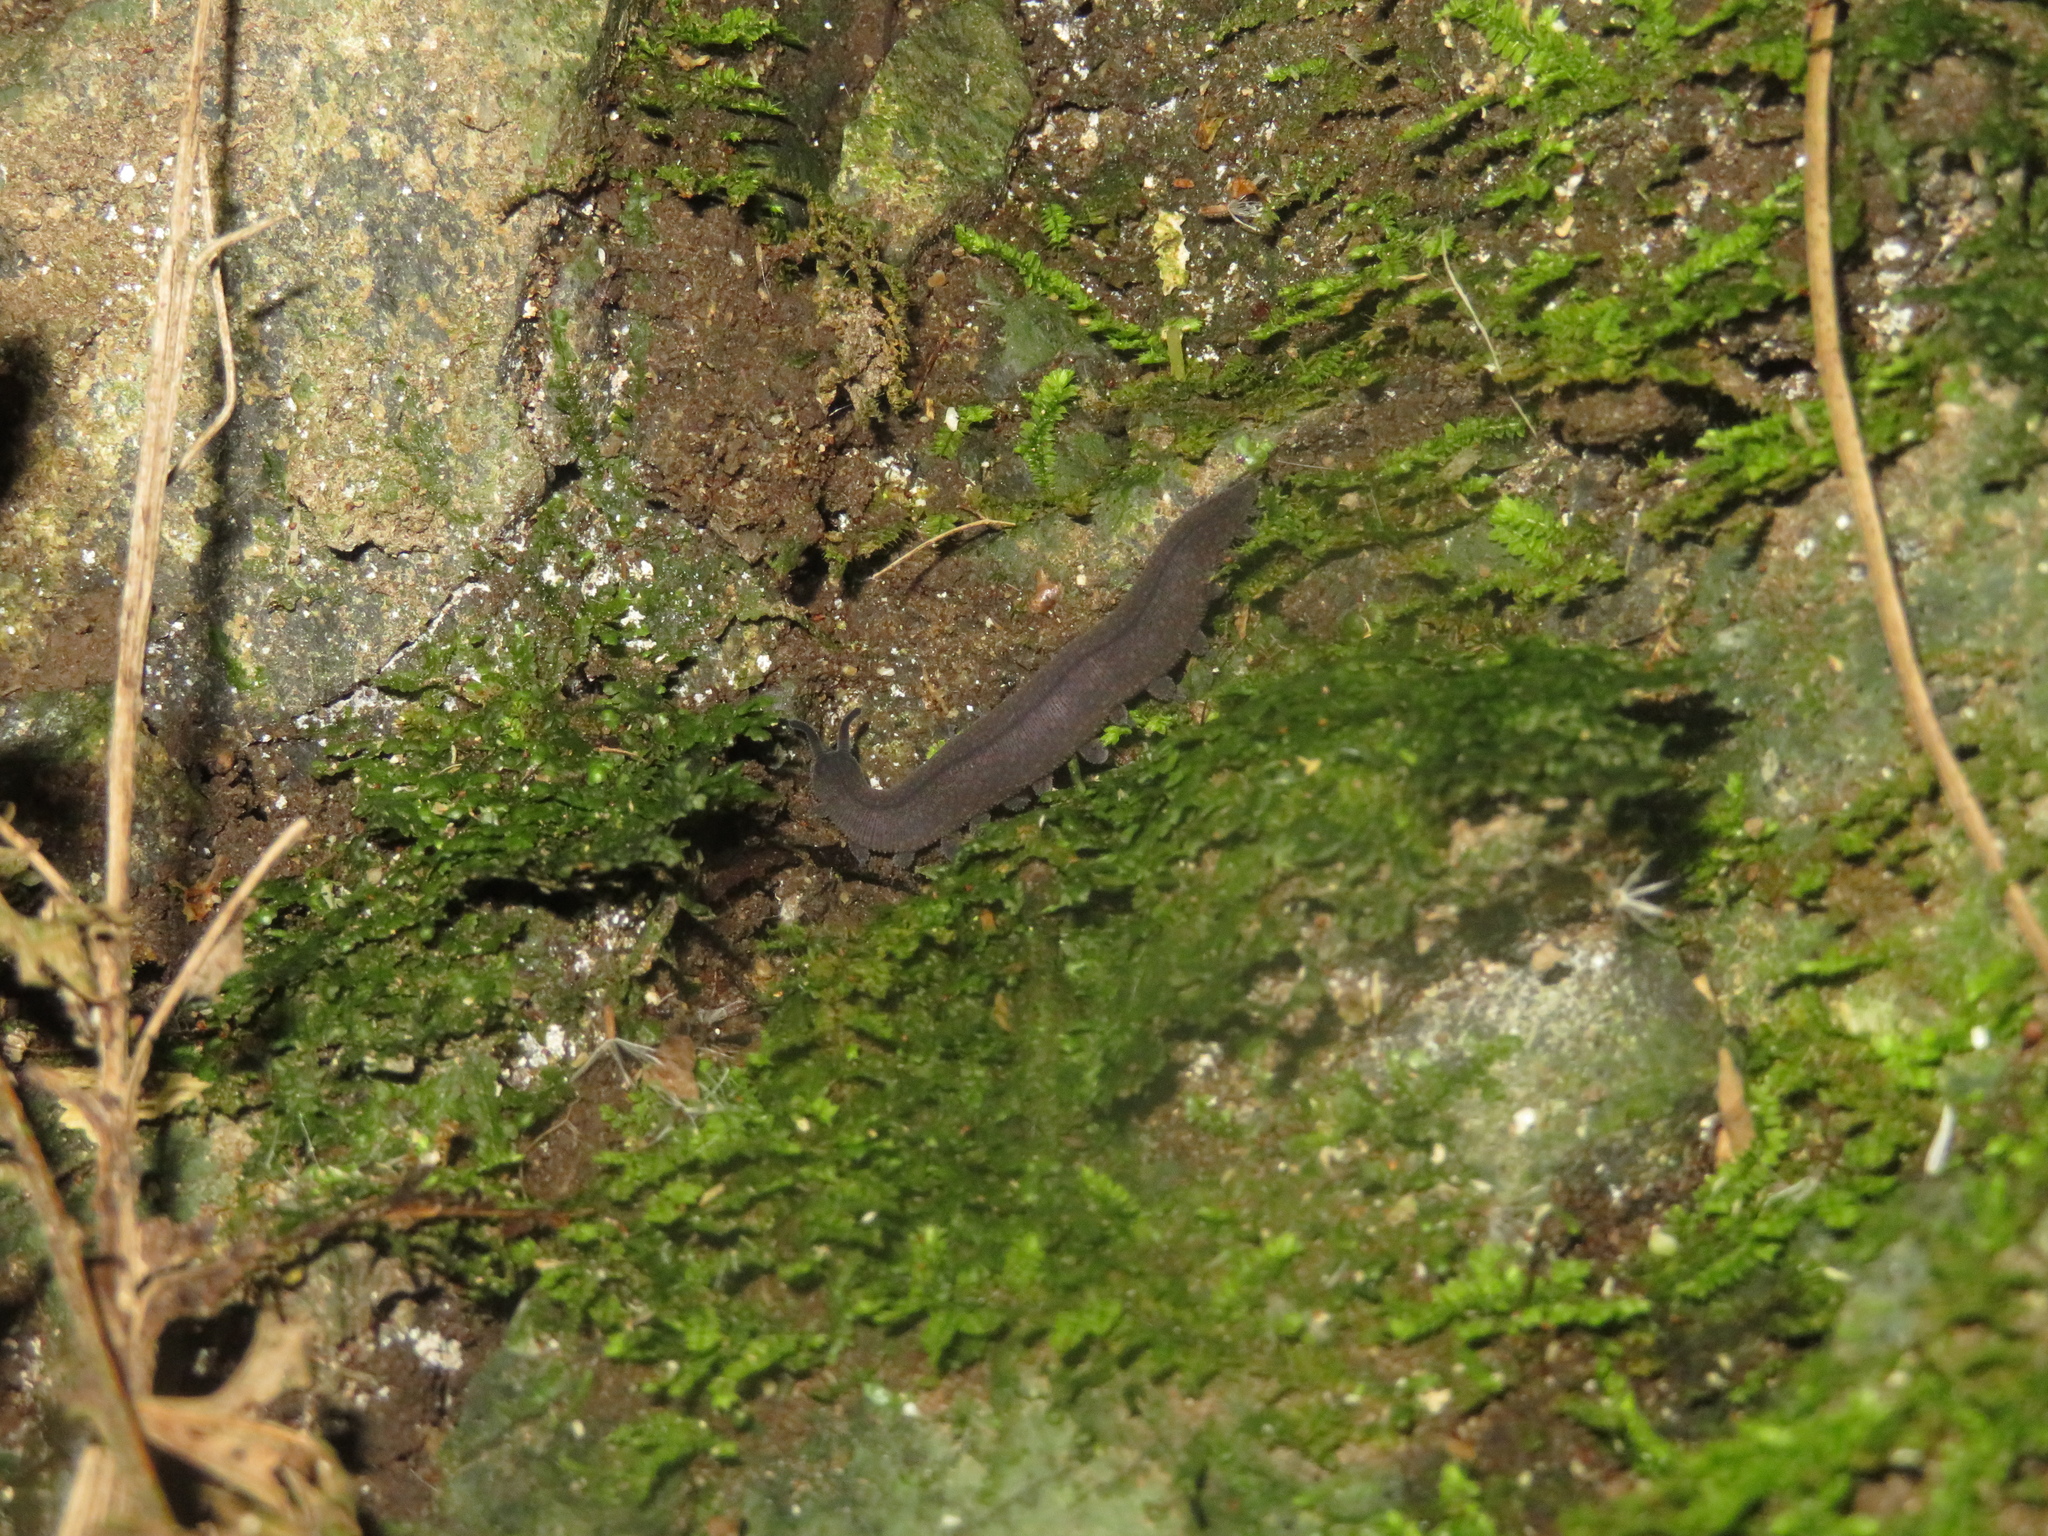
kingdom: Animalia
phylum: Onychophora
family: Peripatopsidae
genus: Peripatoides
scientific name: Peripatoides novaezealandiae
